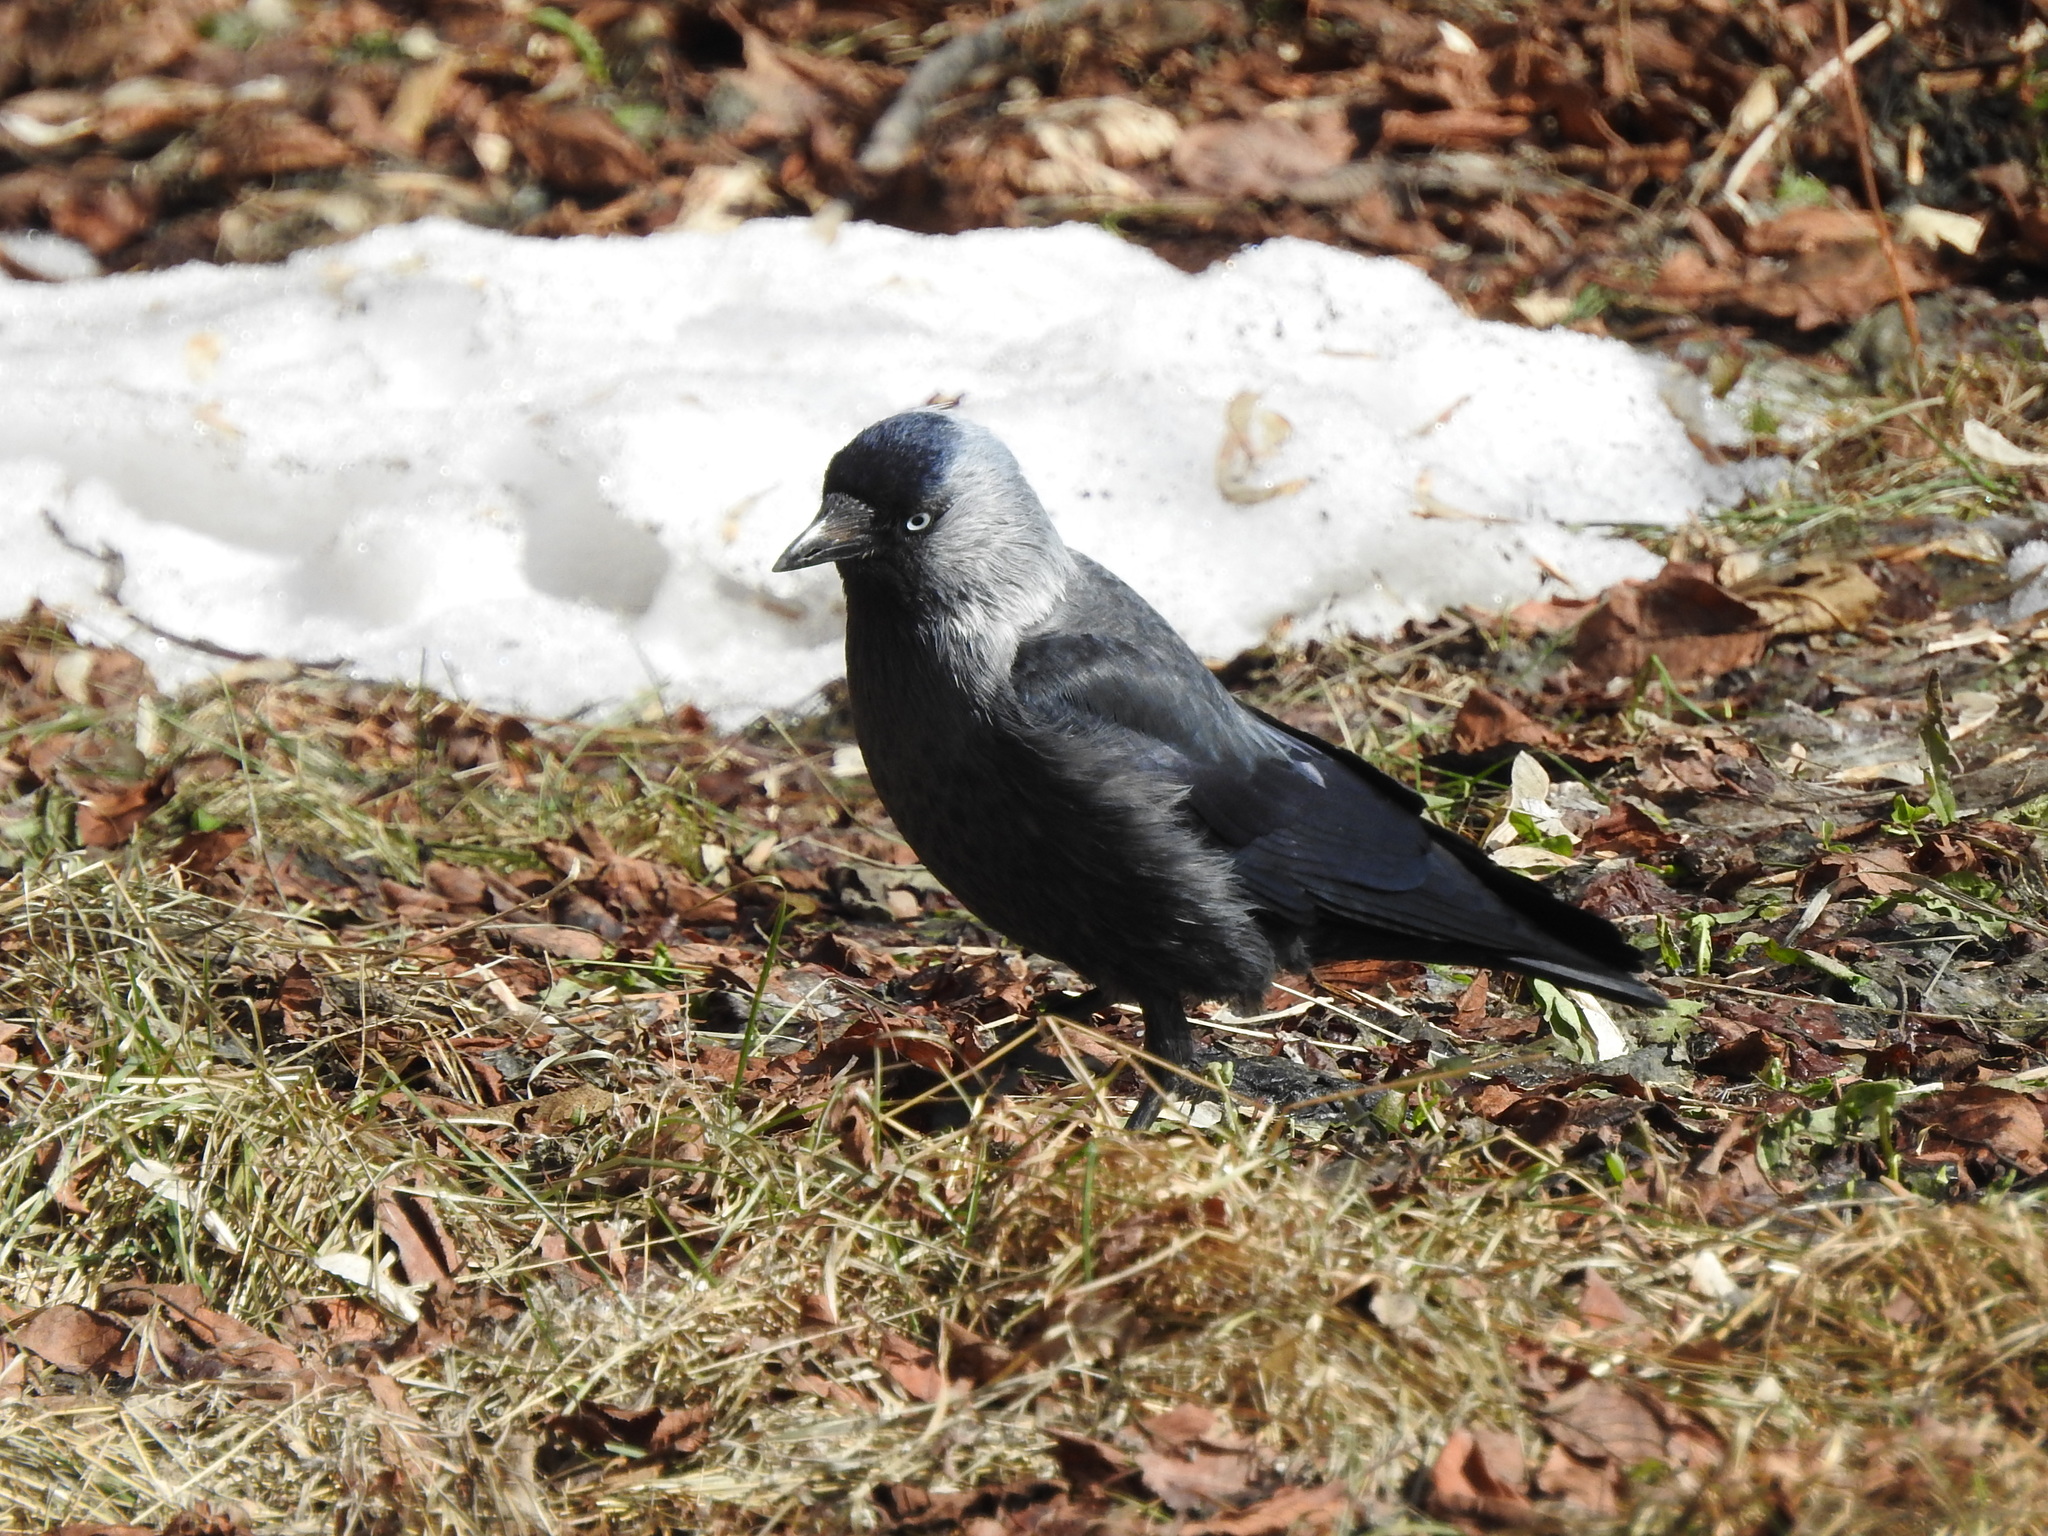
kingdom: Animalia
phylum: Chordata
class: Aves
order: Passeriformes
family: Corvidae
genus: Coloeus
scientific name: Coloeus monedula
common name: Western jackdaw
